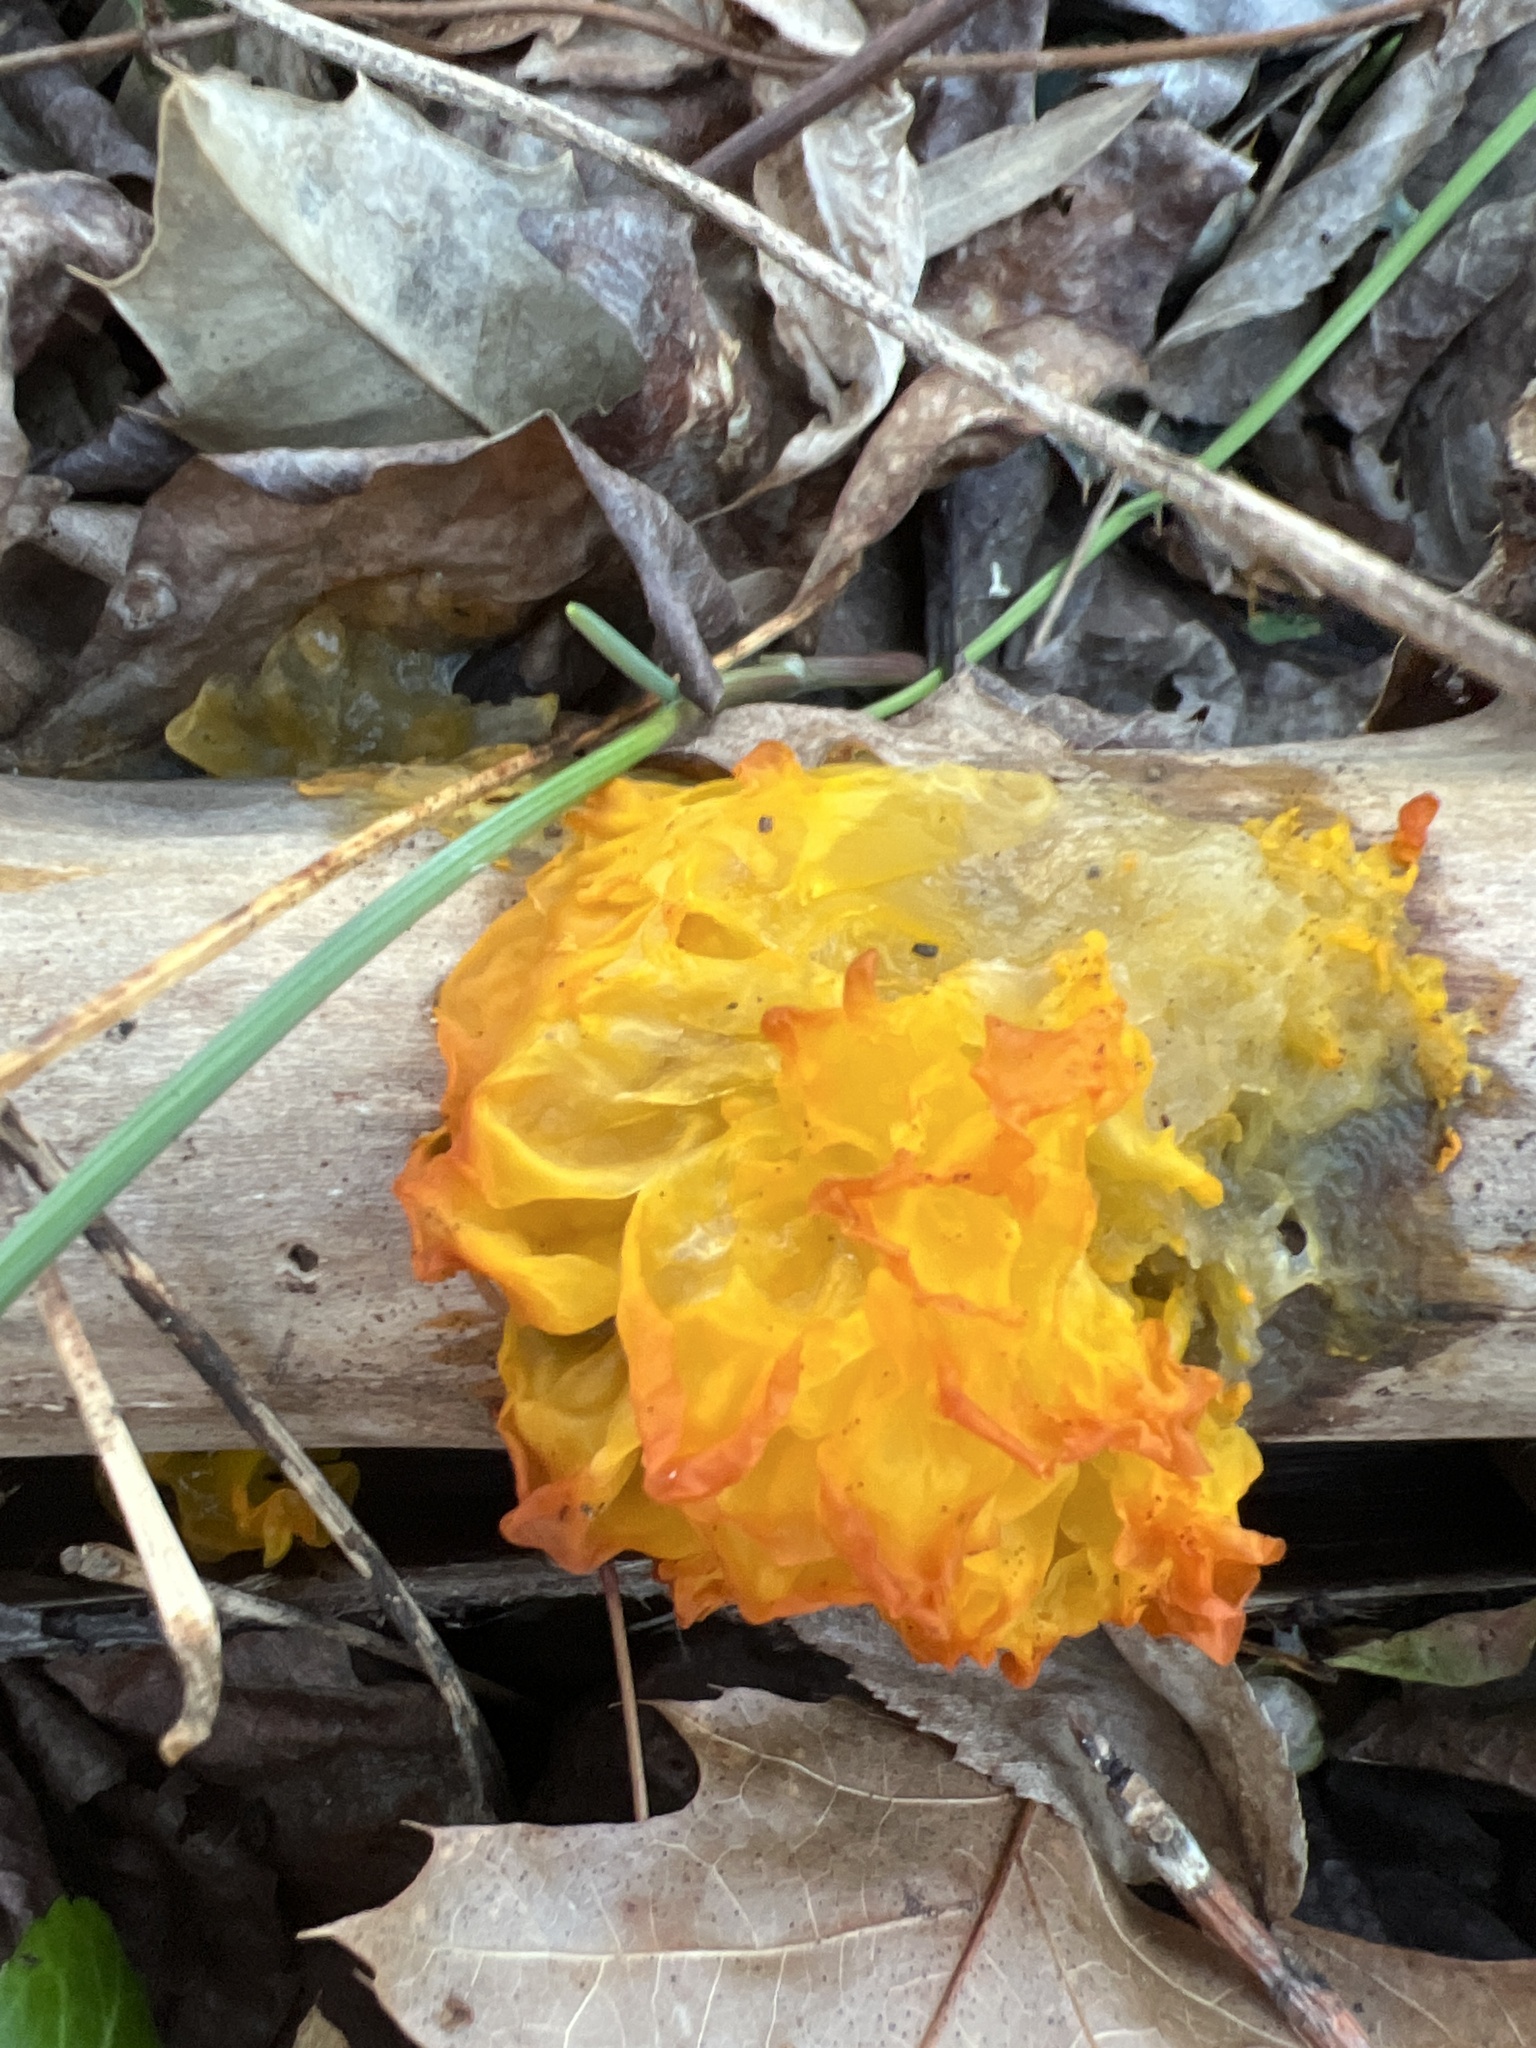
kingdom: Fungi
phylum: Basidiomycota
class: Tremellomycetes
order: Tremellales
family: Tremellaceae
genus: Tremella
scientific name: Tremella mesenterica
